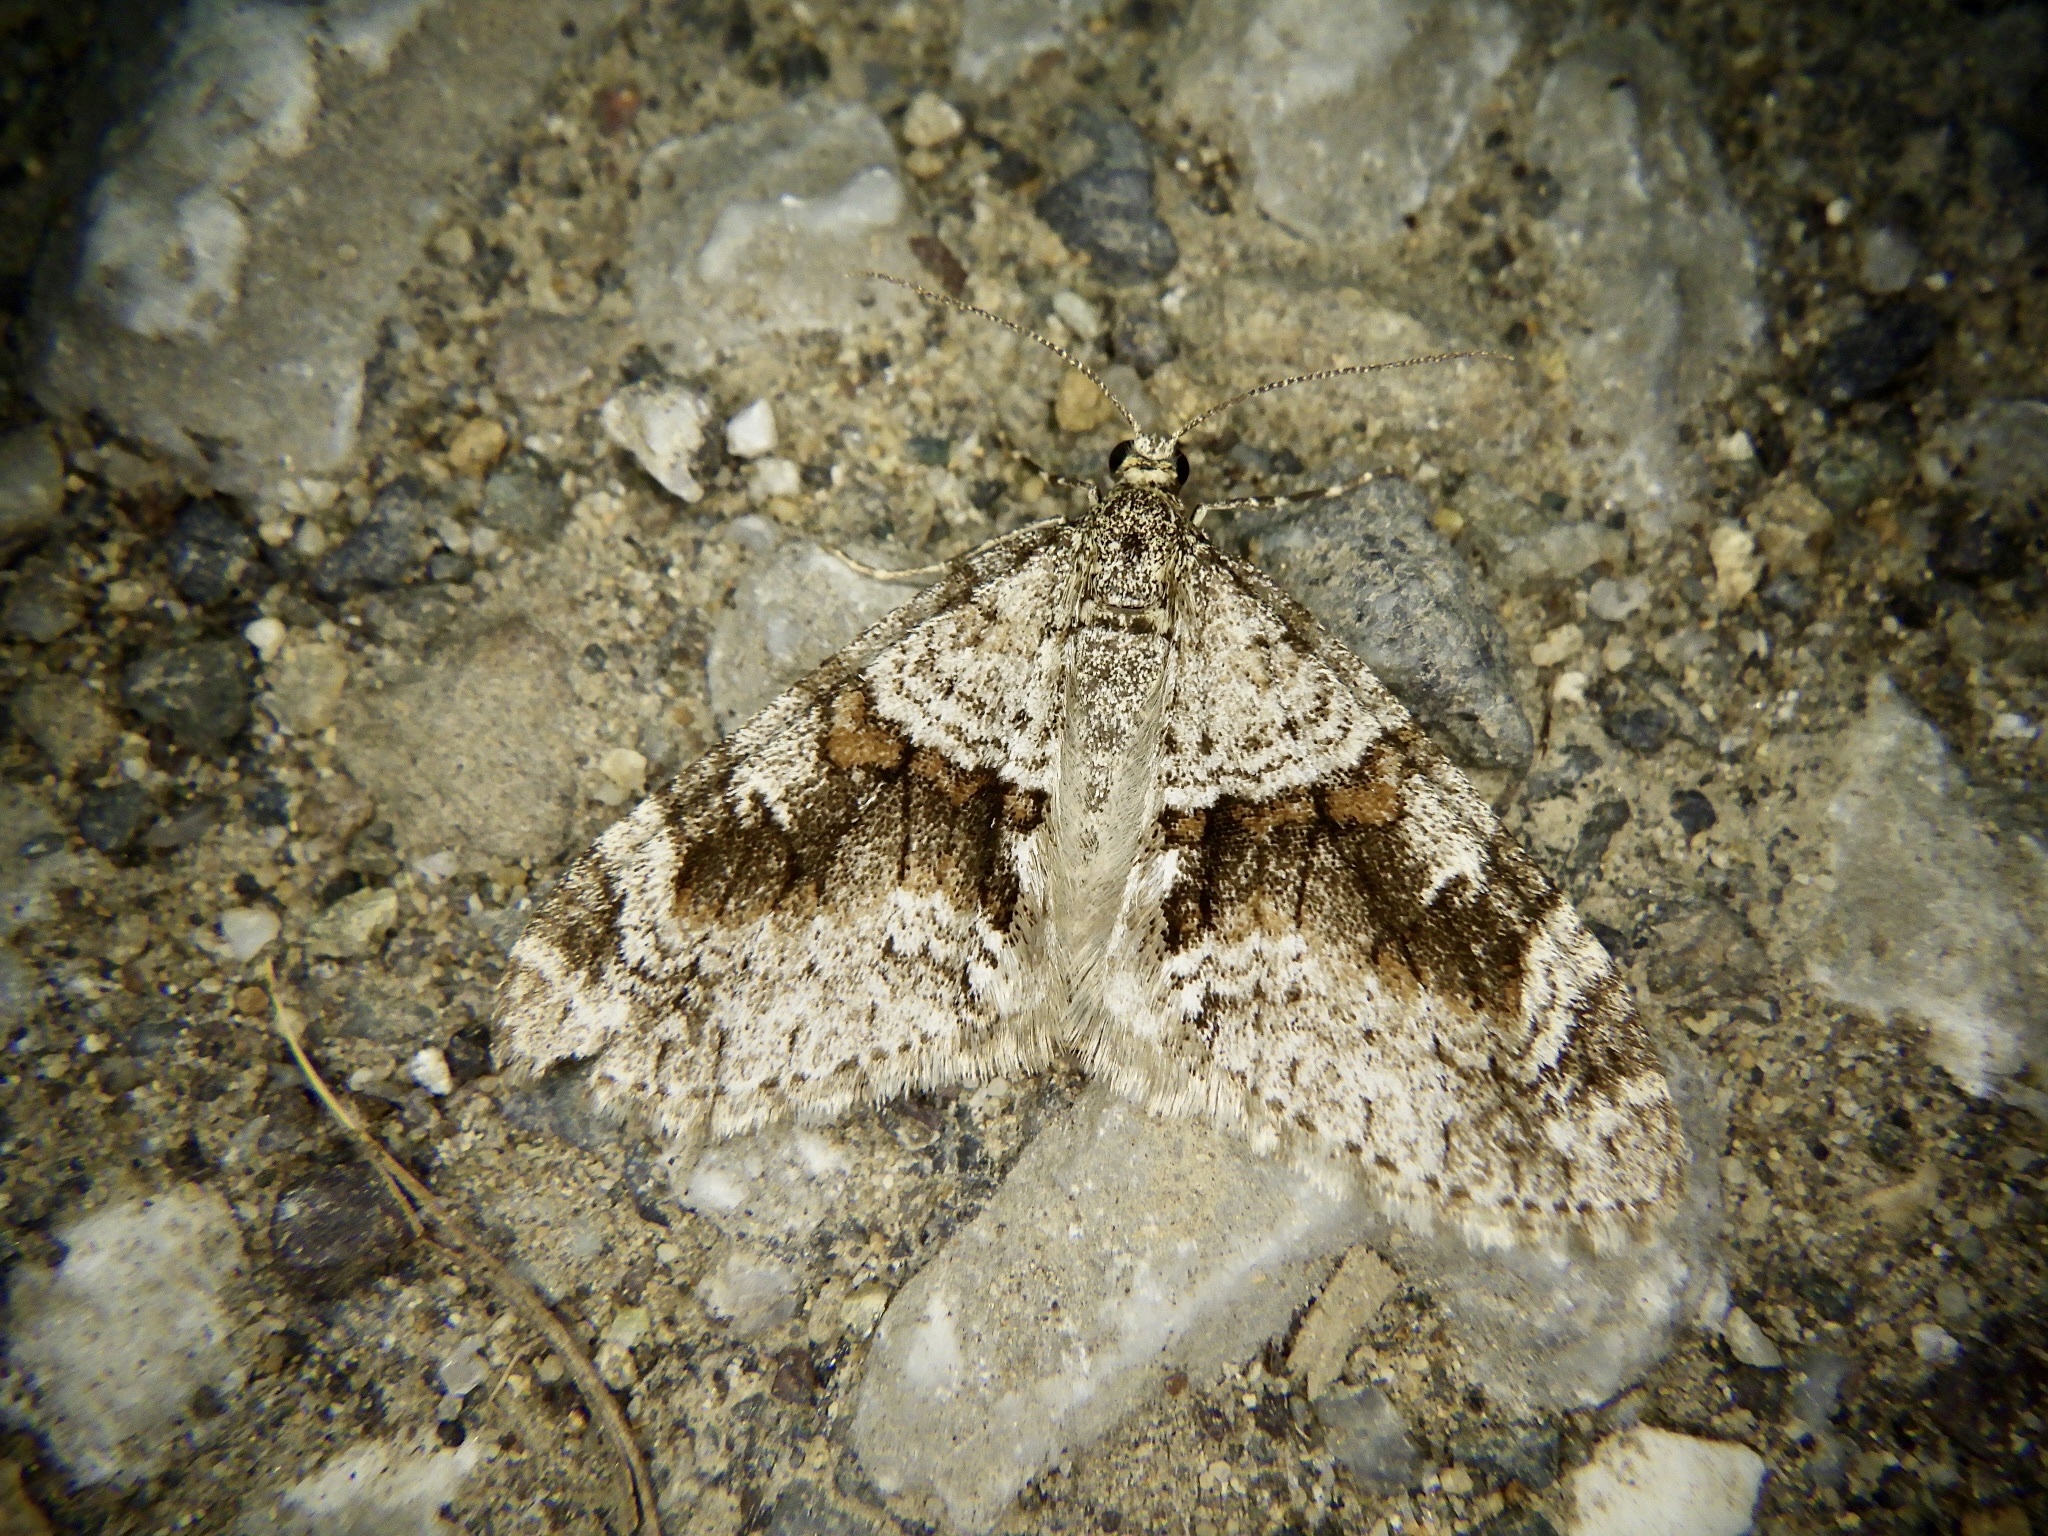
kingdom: Animalia
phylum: Arthropoda
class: Insecta
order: Lepidoptera
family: Geometridae
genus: Trichopteryx
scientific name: Trichopteryx terranea
